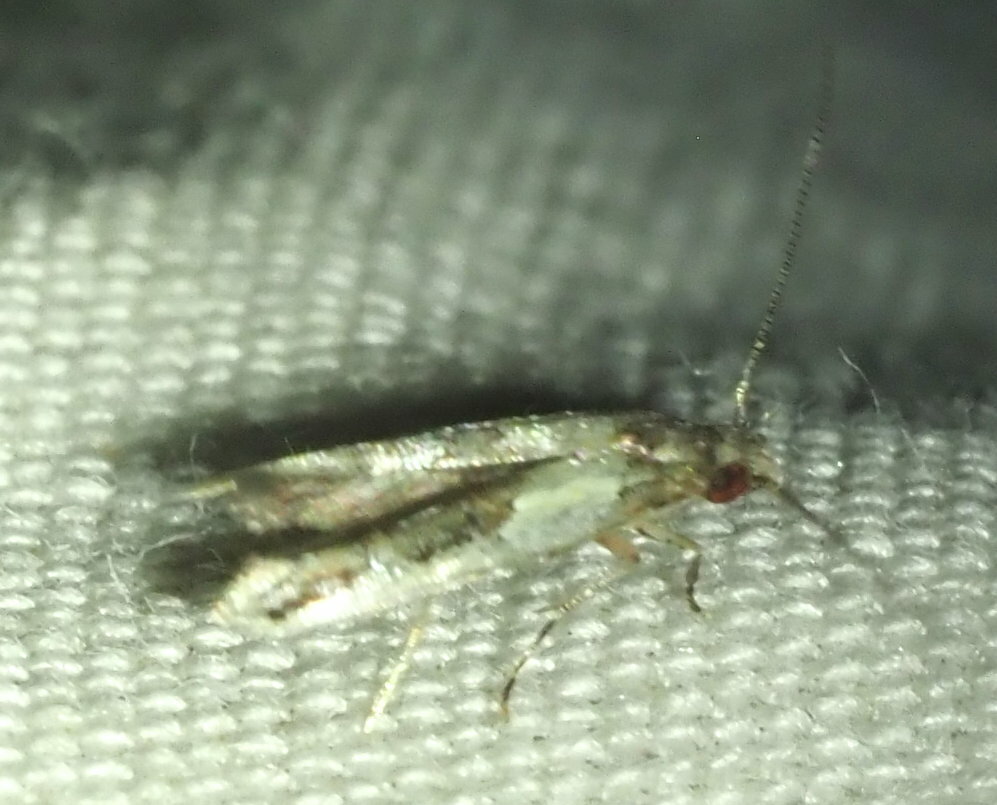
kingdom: Animalia
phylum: Arthropoda
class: Insecta
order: Lepidoptera
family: Momphidae
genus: Mompha
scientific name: Mompha trithalama
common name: Moth
